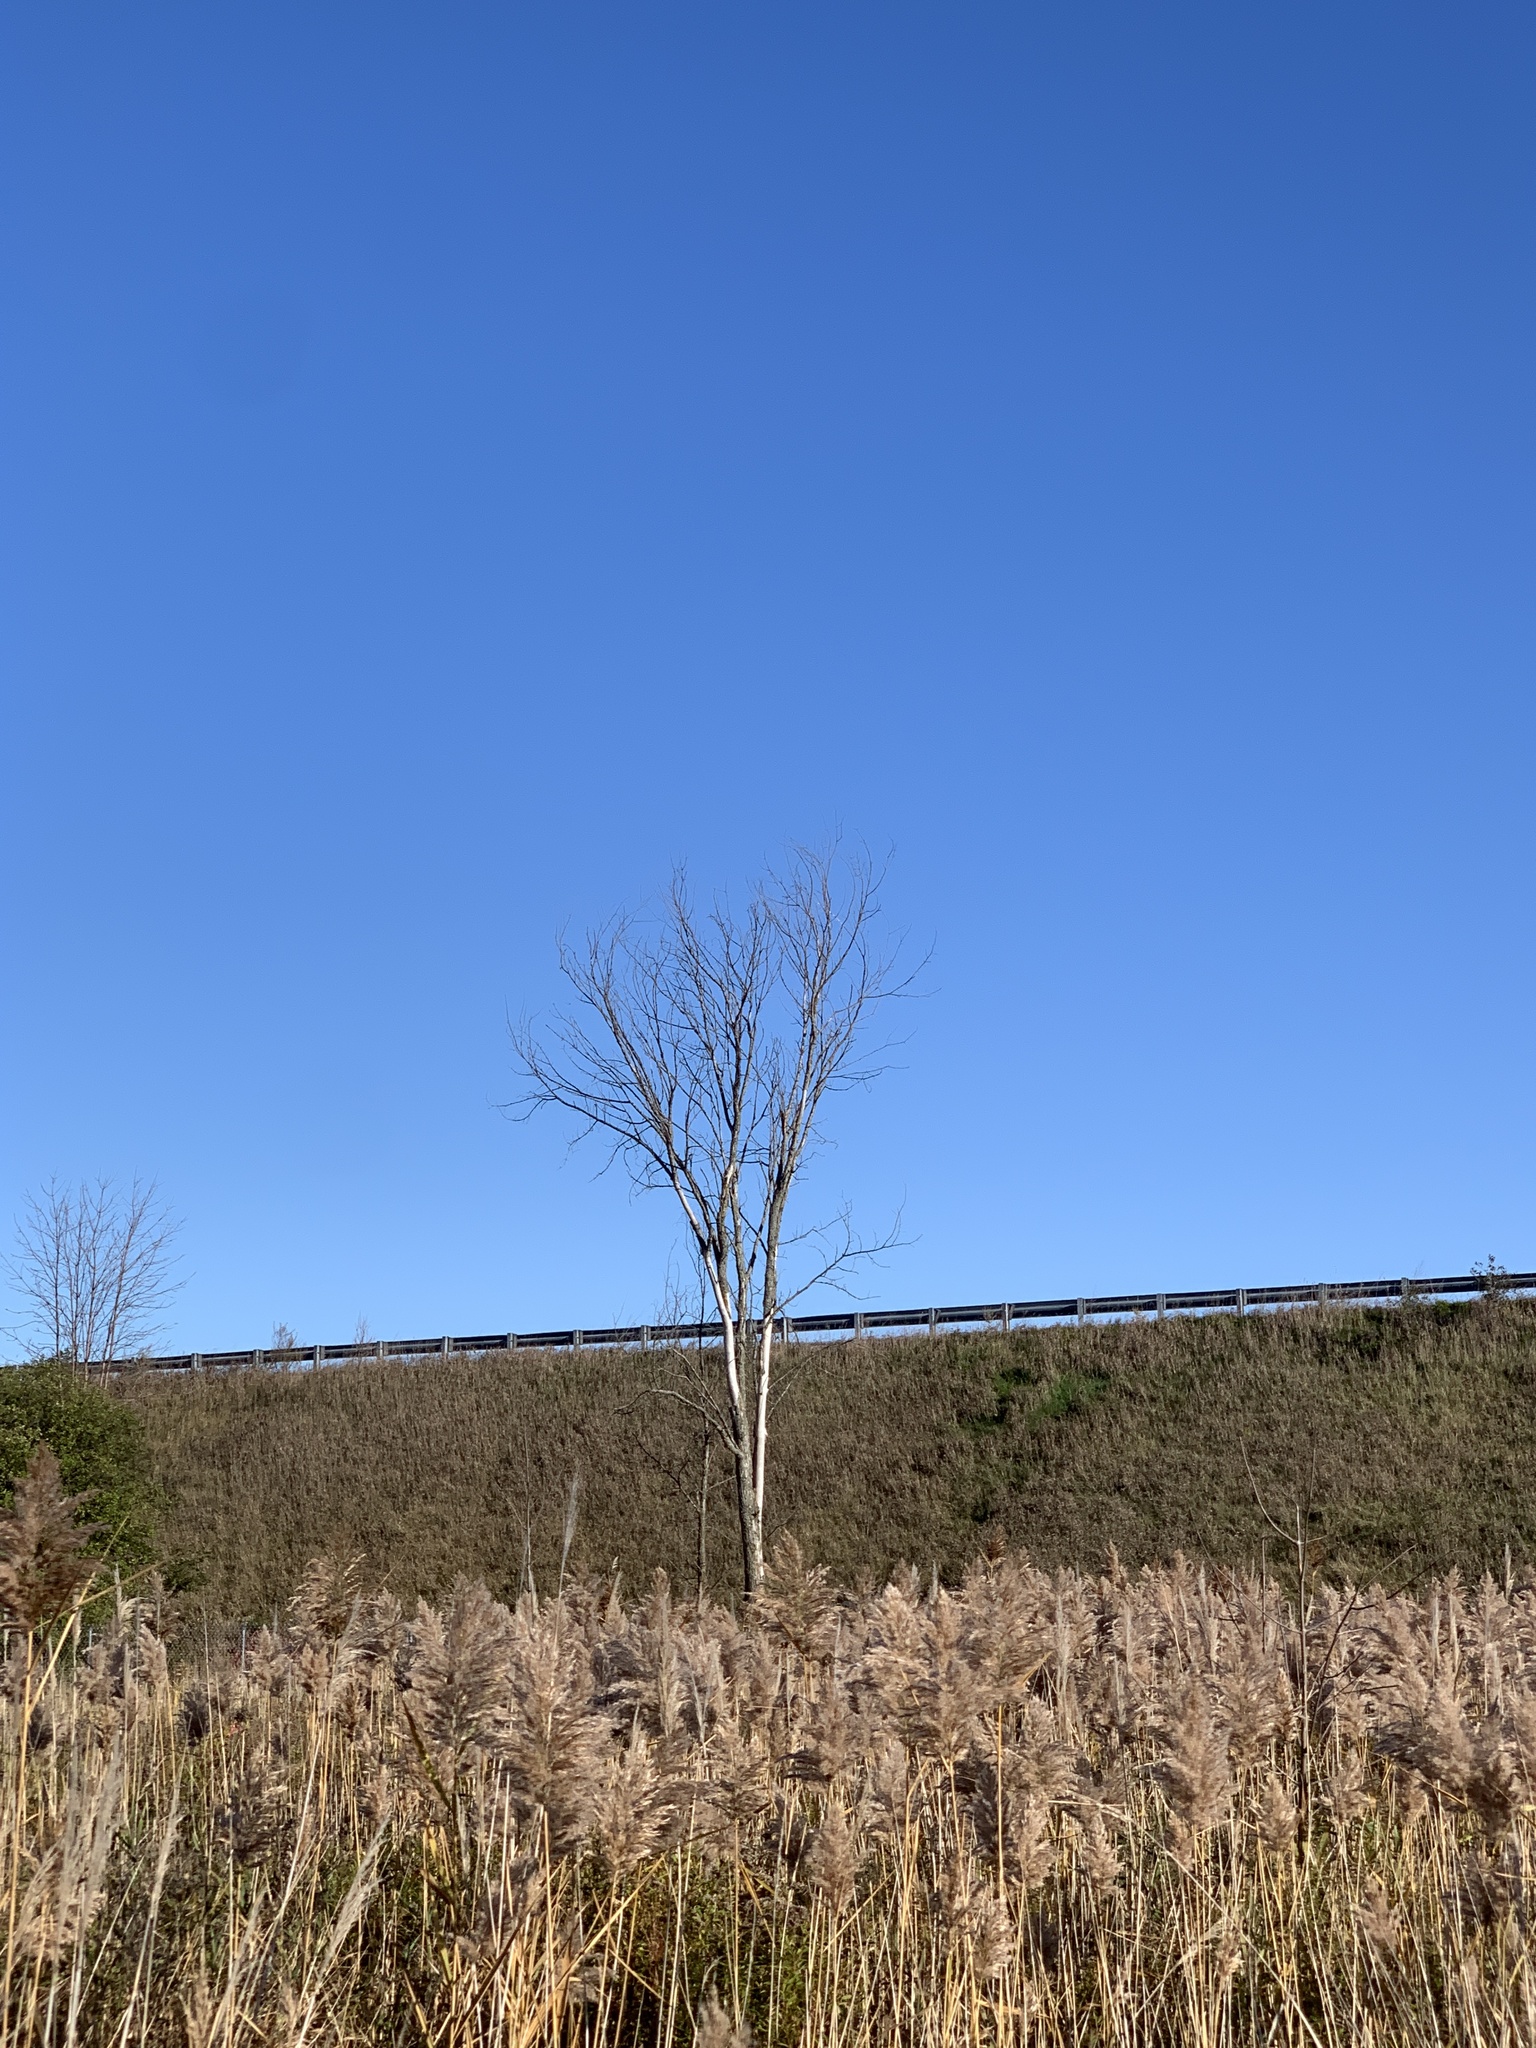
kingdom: Plantae
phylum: Tracheophyta
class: Magnoliopsida
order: Rosales
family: Ulmaceae
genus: Ulmus
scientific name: Ulmus americana
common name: American elm
